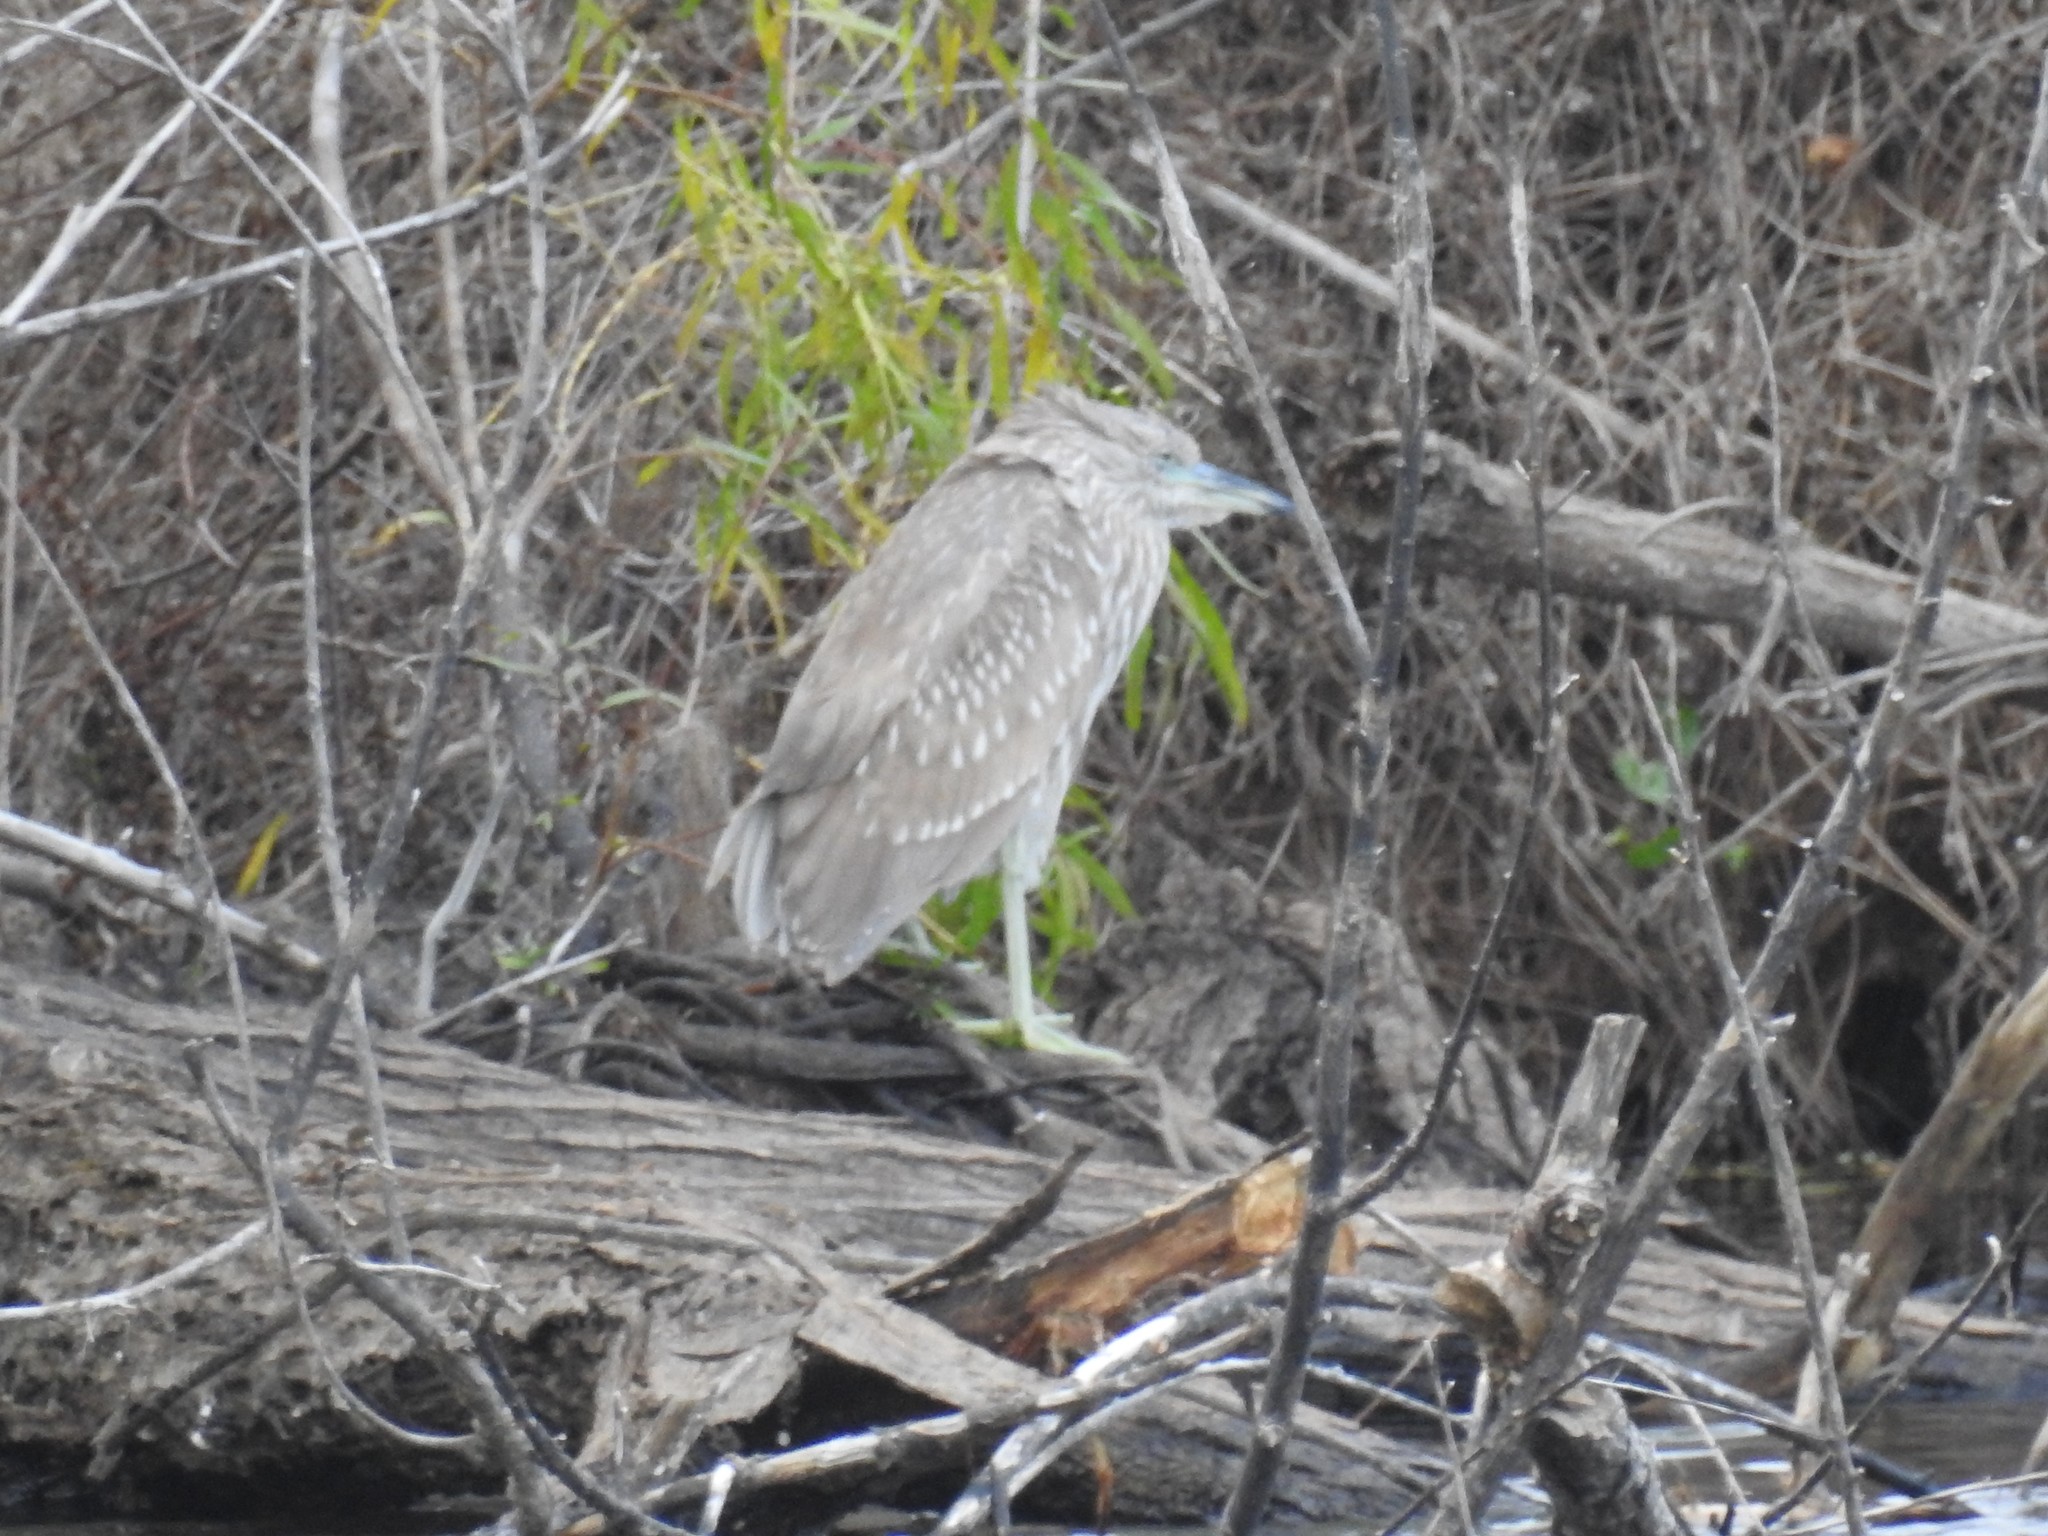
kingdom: Animalia
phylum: Chordata
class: Aves
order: Pelecaniformes
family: Ardeidae
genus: Nycticorax
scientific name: Nycticorax nycticorax
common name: Black-crowned night heron
